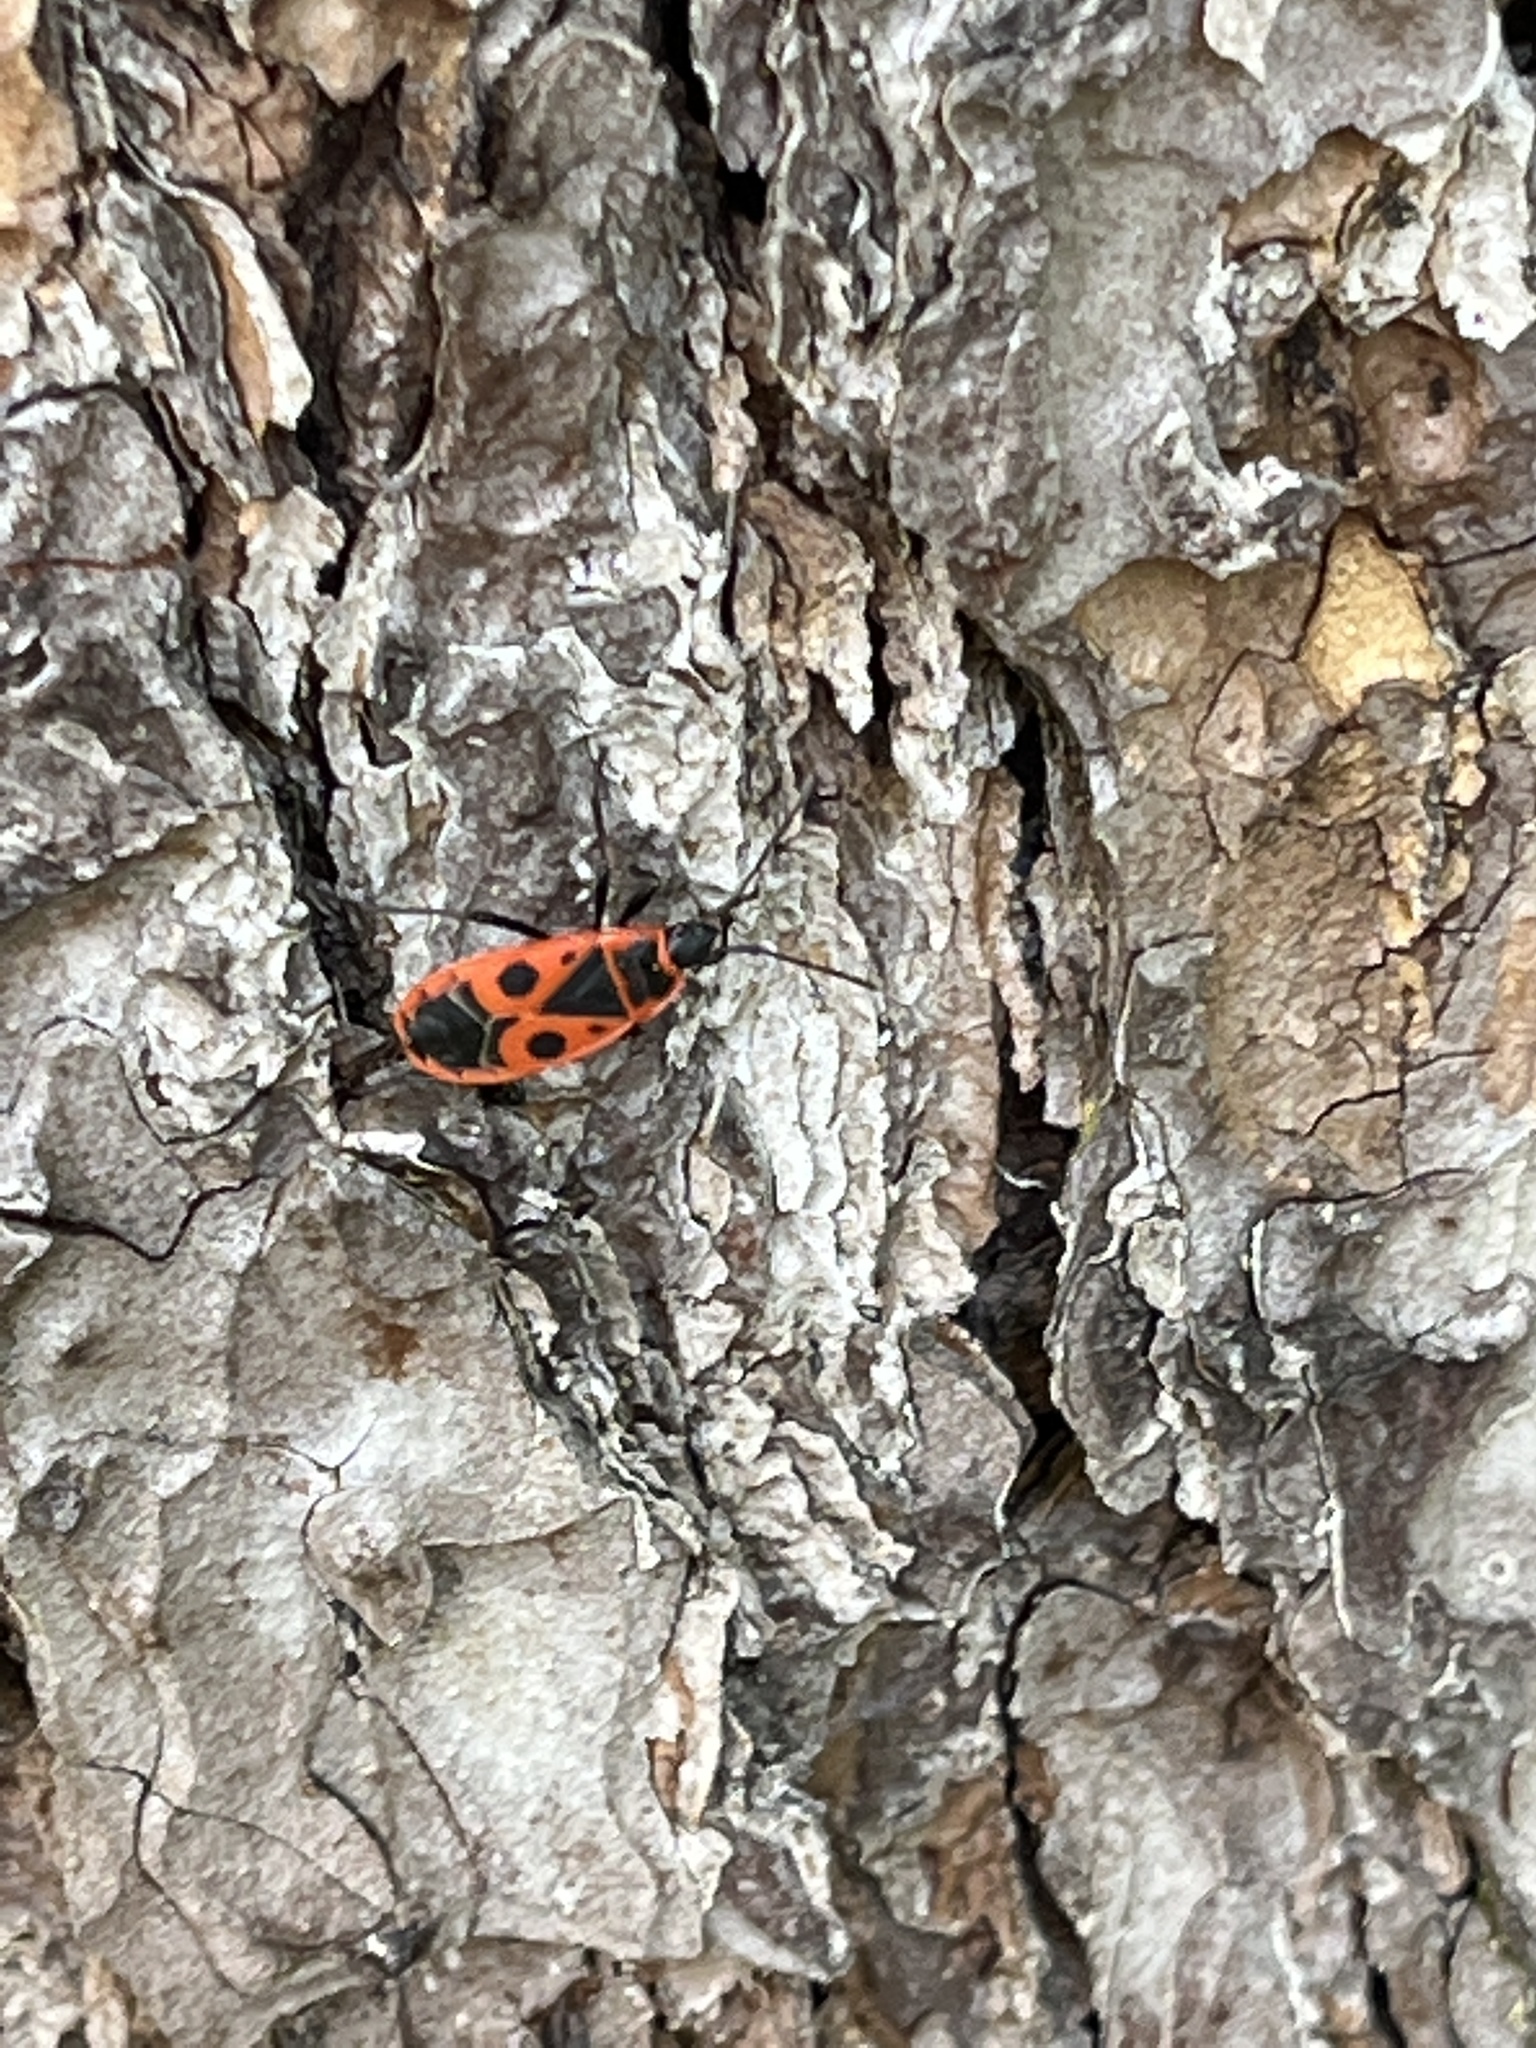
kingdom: Animalia
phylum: Arthropoda
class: Insecta
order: Hemiptera
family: Pyrrhocoridae
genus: Pyrrhocoris
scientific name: Pyrrhocoris apterus
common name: Firebug
